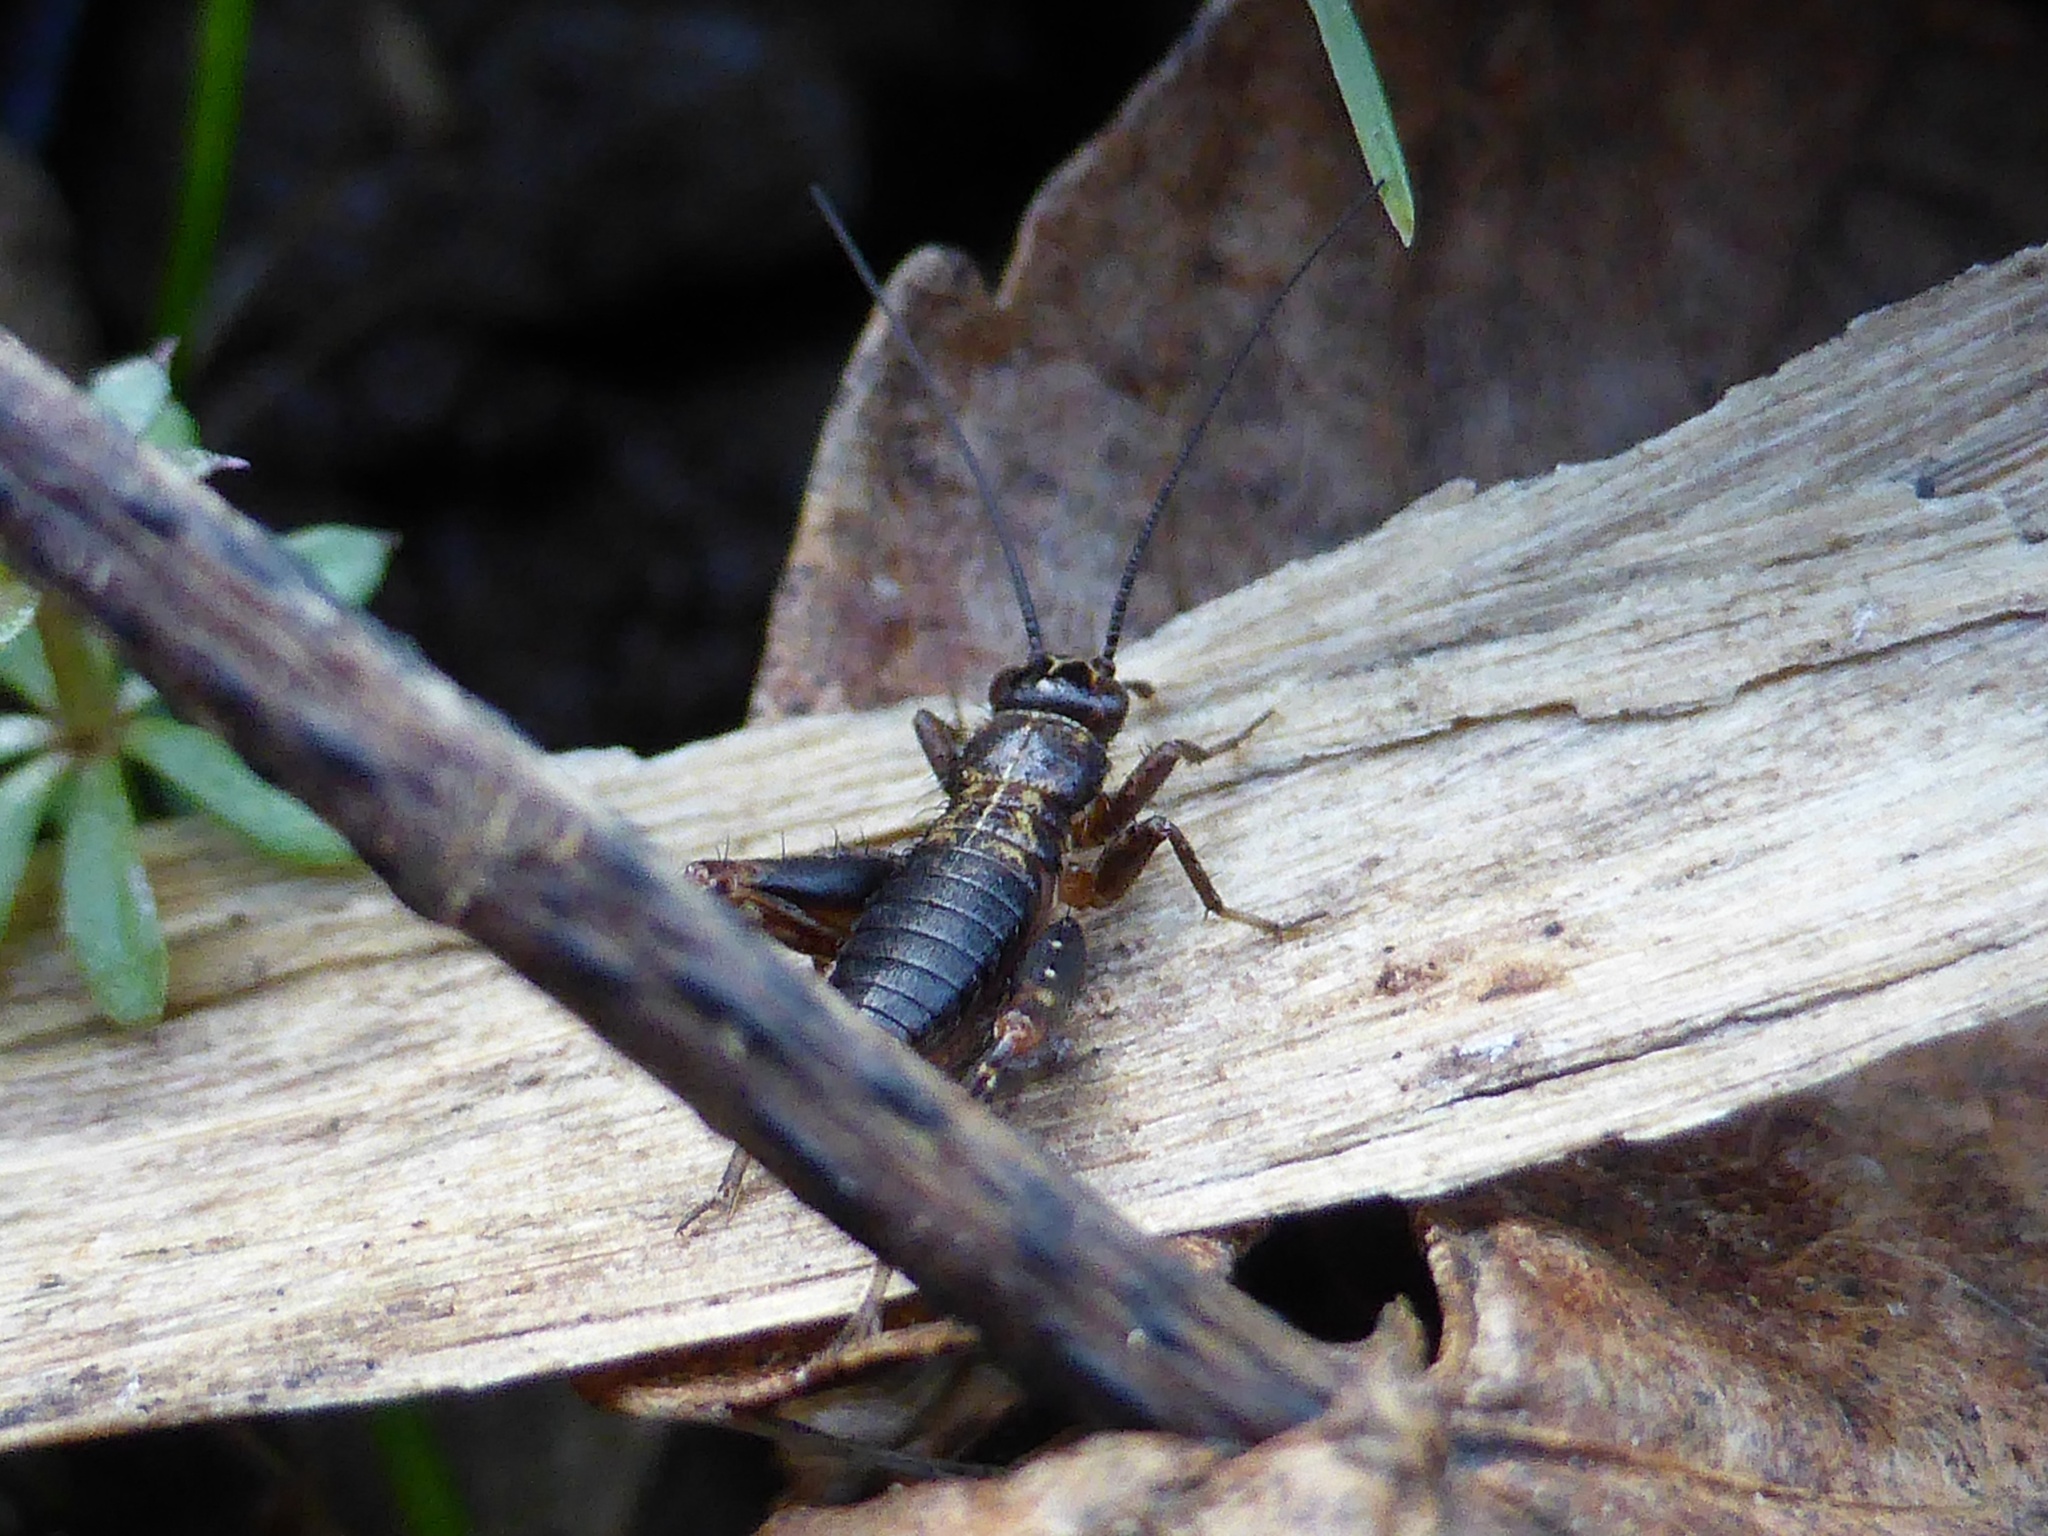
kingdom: Animalia
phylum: Arthropoda
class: Insecta
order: Orthoptera
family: Trigonidiidae
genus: Nemobius
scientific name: Nemobius sylvestris
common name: Wood-cricket
